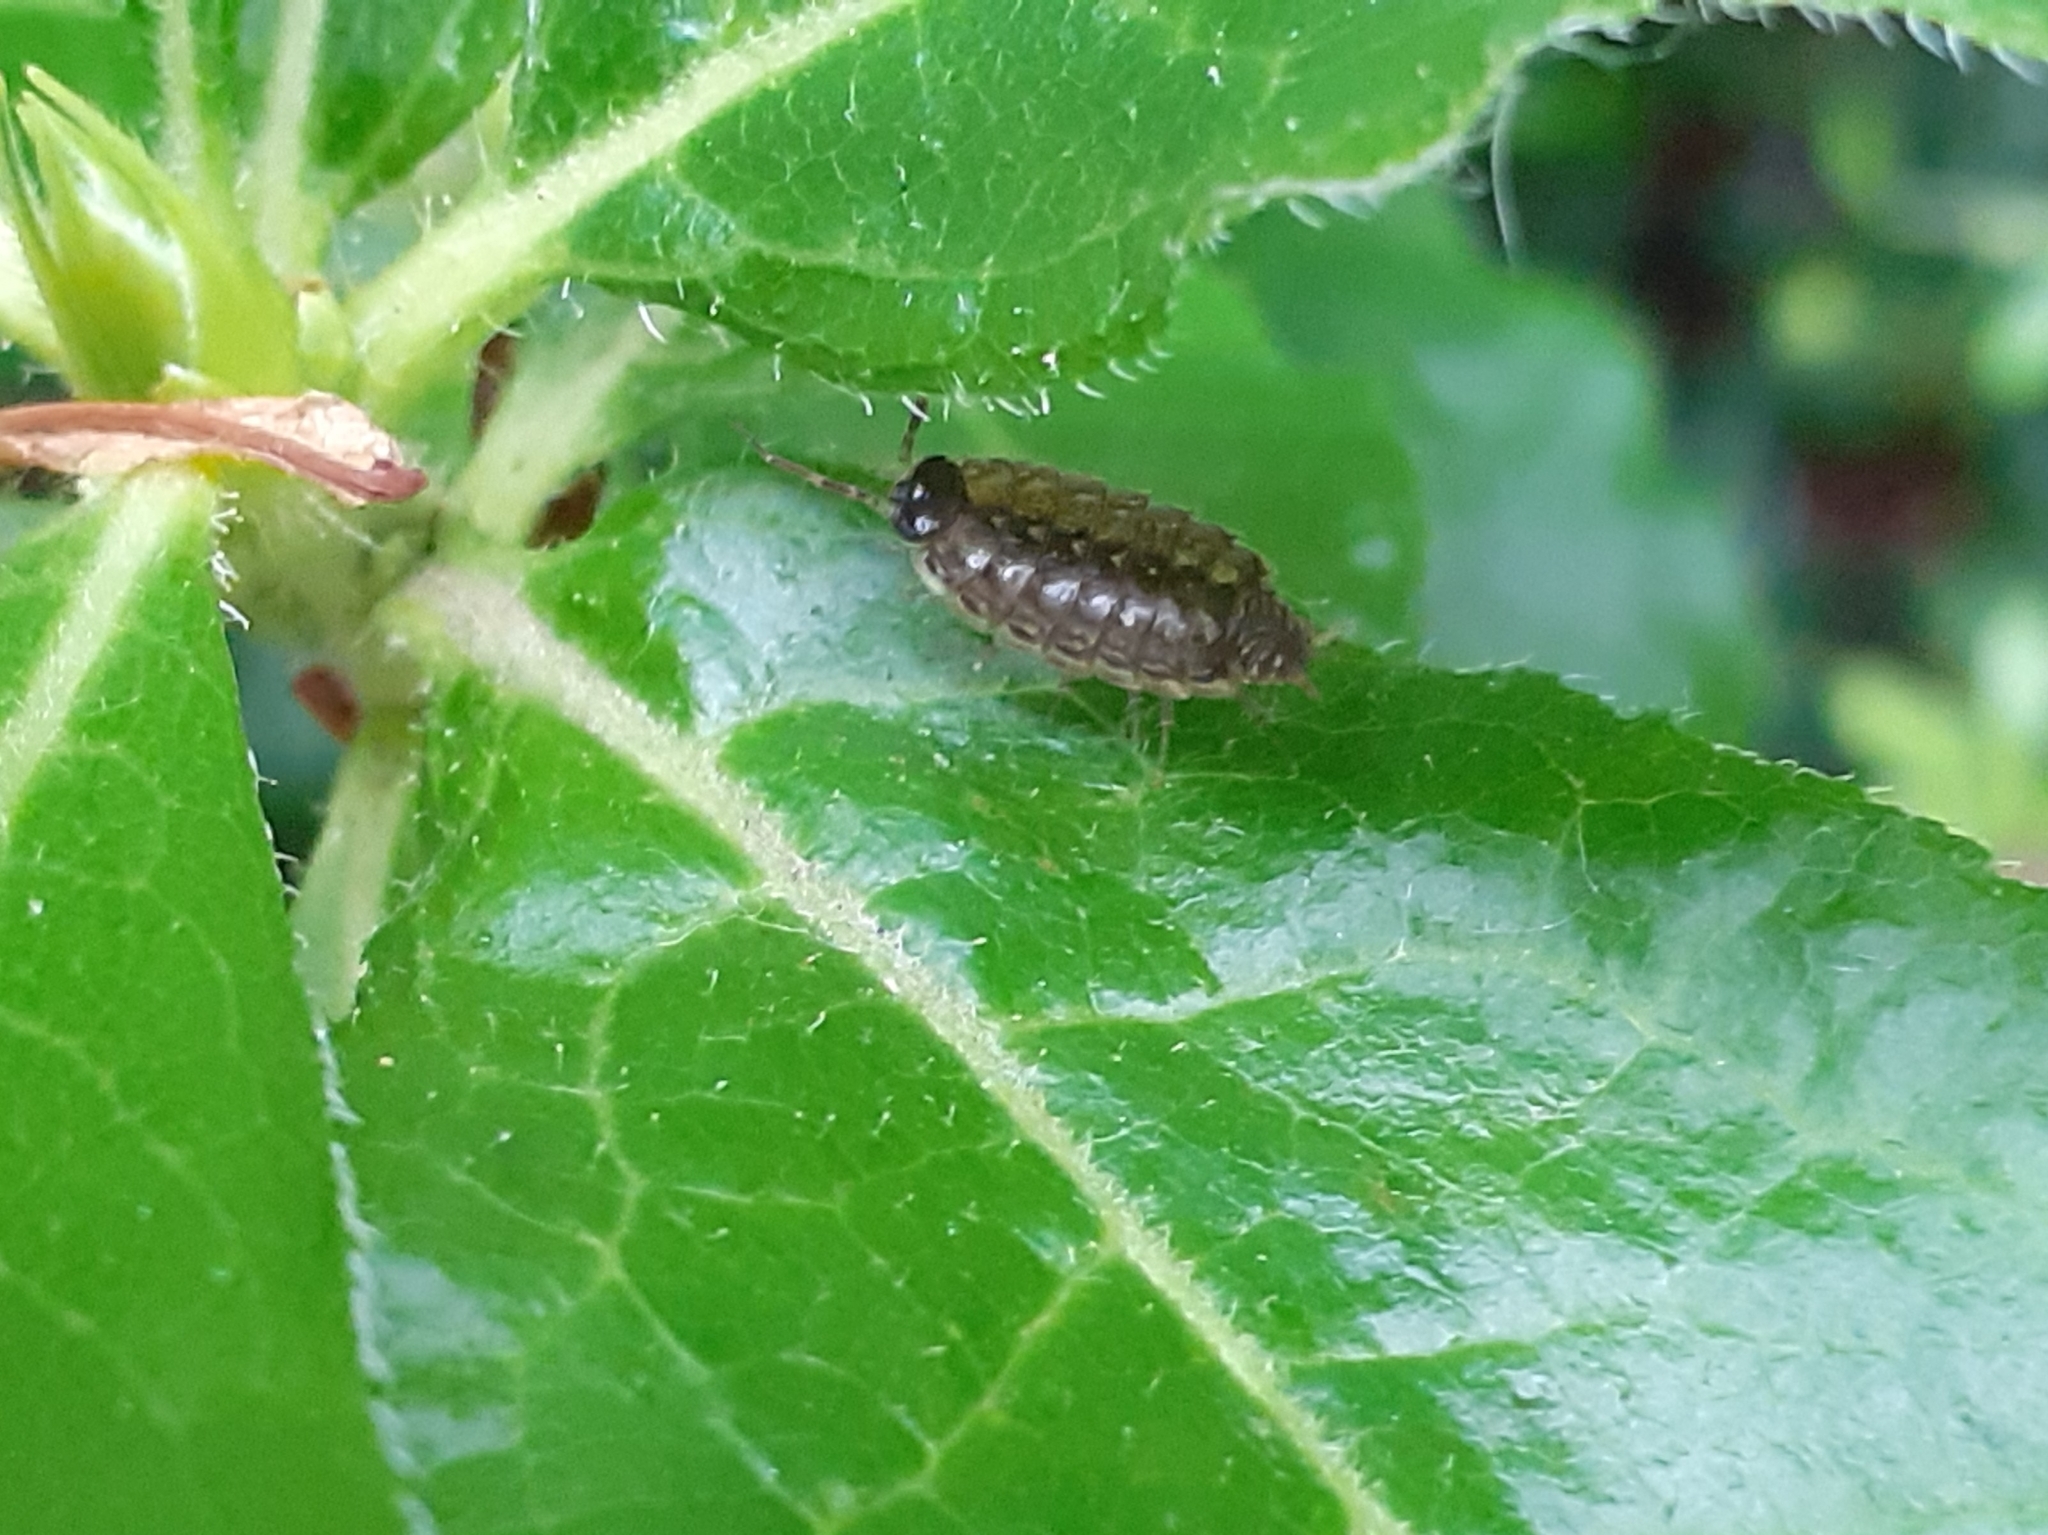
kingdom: Animalia
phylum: Arthropoda
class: Malacostraca
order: Isopoda
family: Philosciidae
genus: Philoscia
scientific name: Philoscia muscorum
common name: Common striped woodlouse
